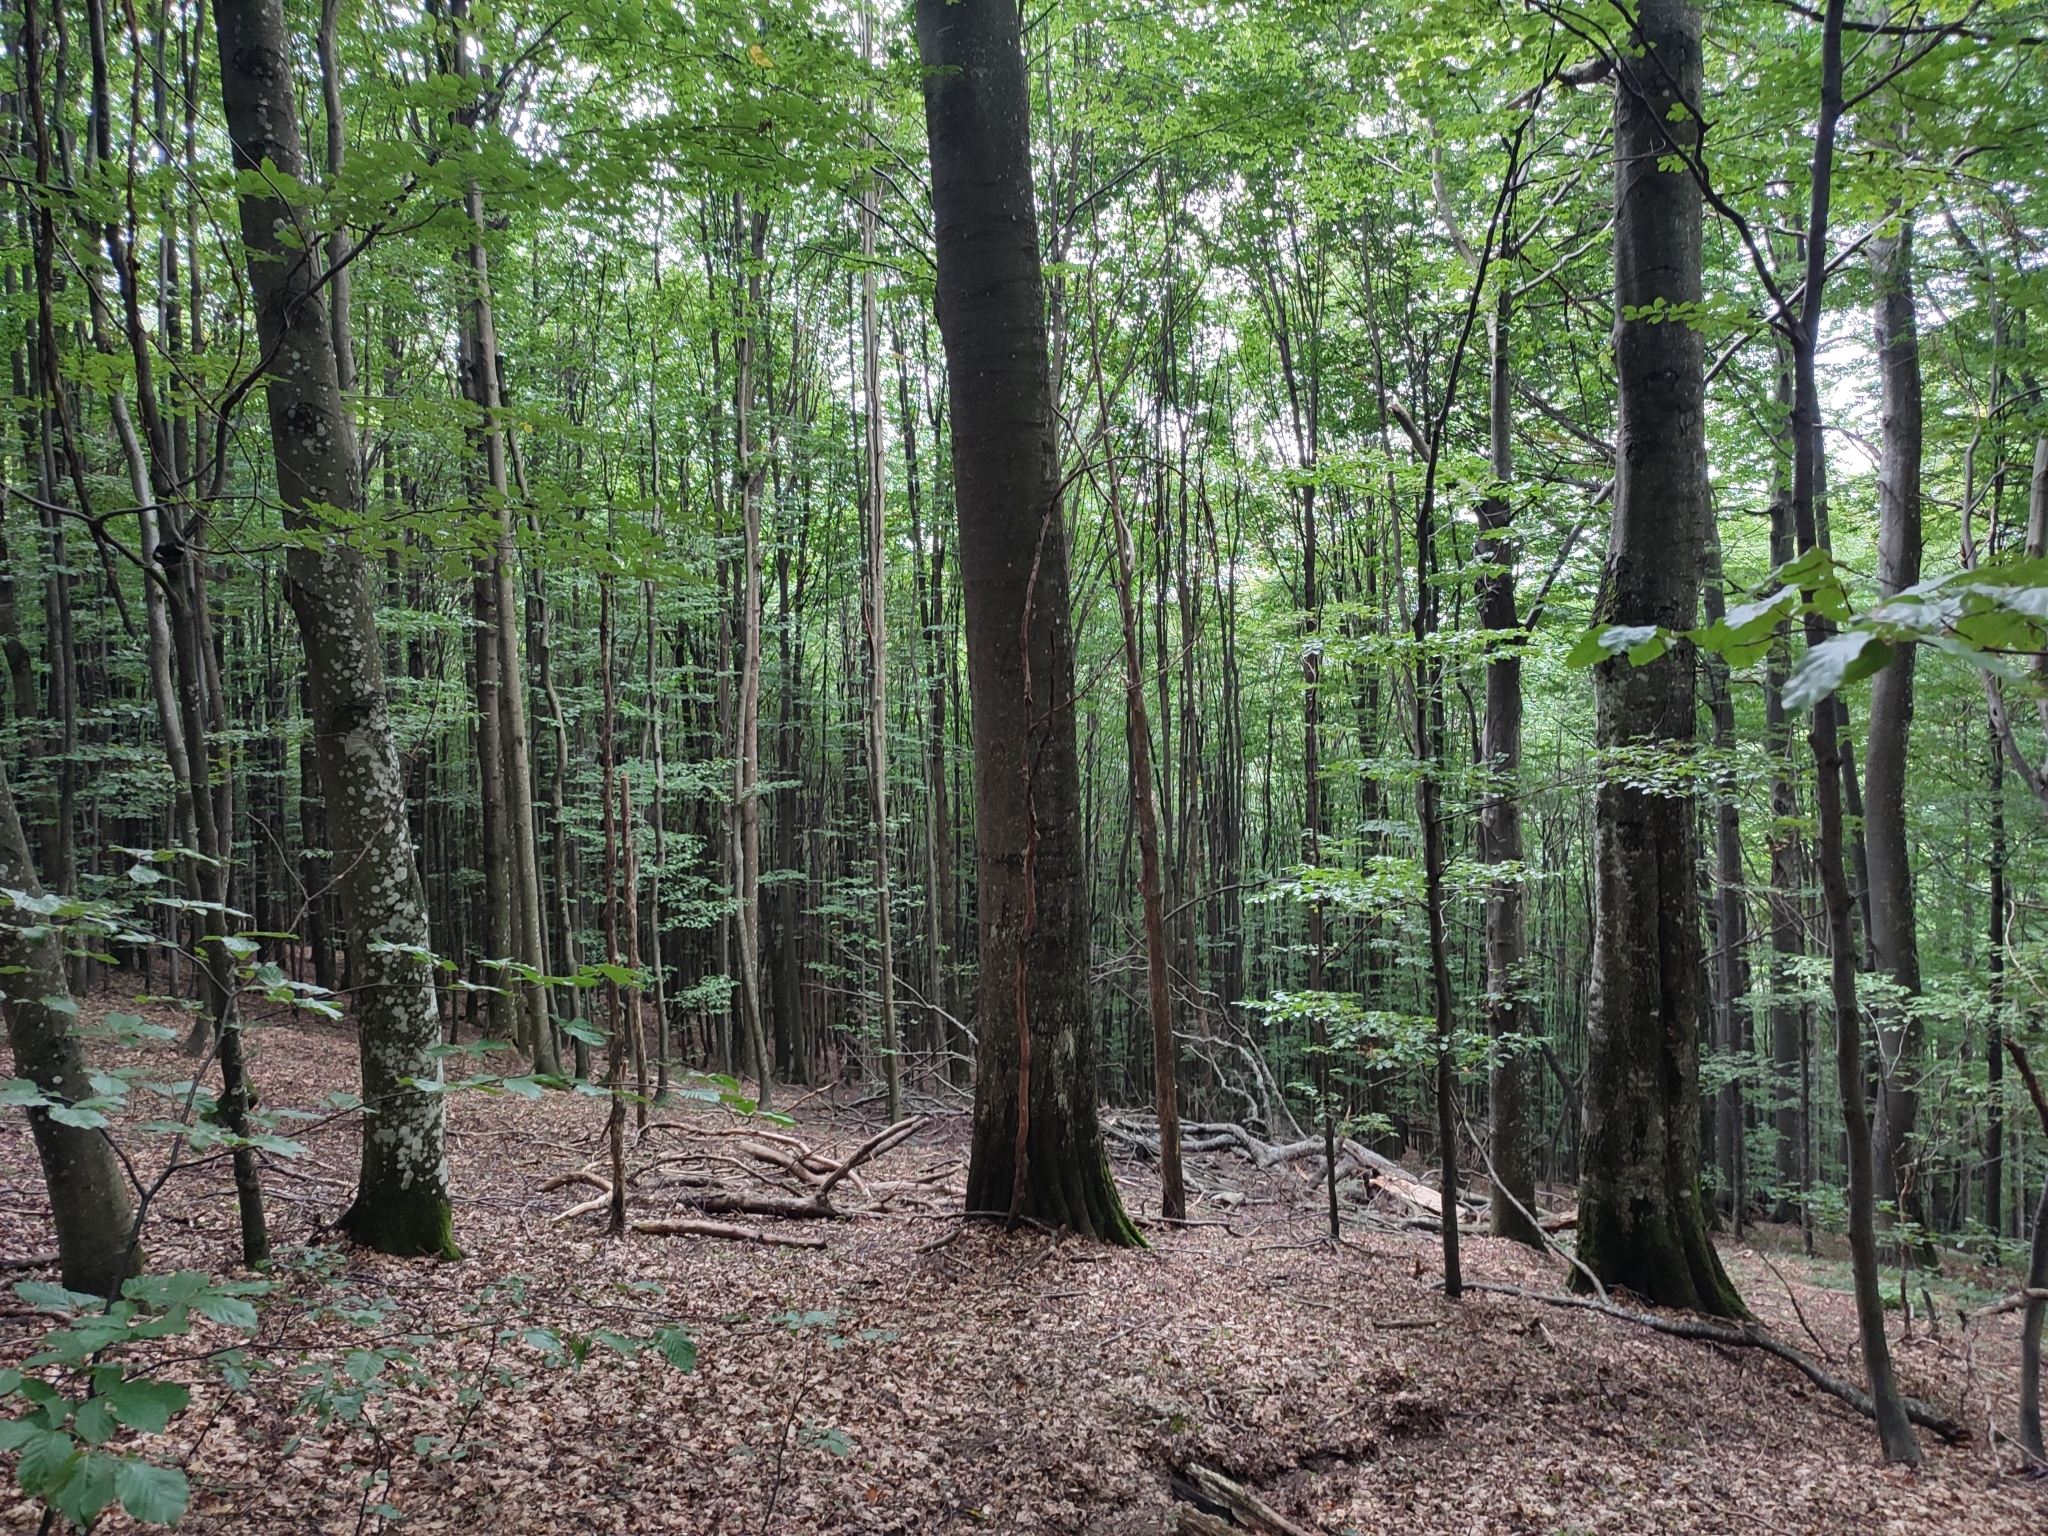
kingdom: Plantae
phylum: Tracheophyta
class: Magnoliopsida
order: Fagales
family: Fagaceae
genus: Fagus
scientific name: Fagus sylvatica
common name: Beech
